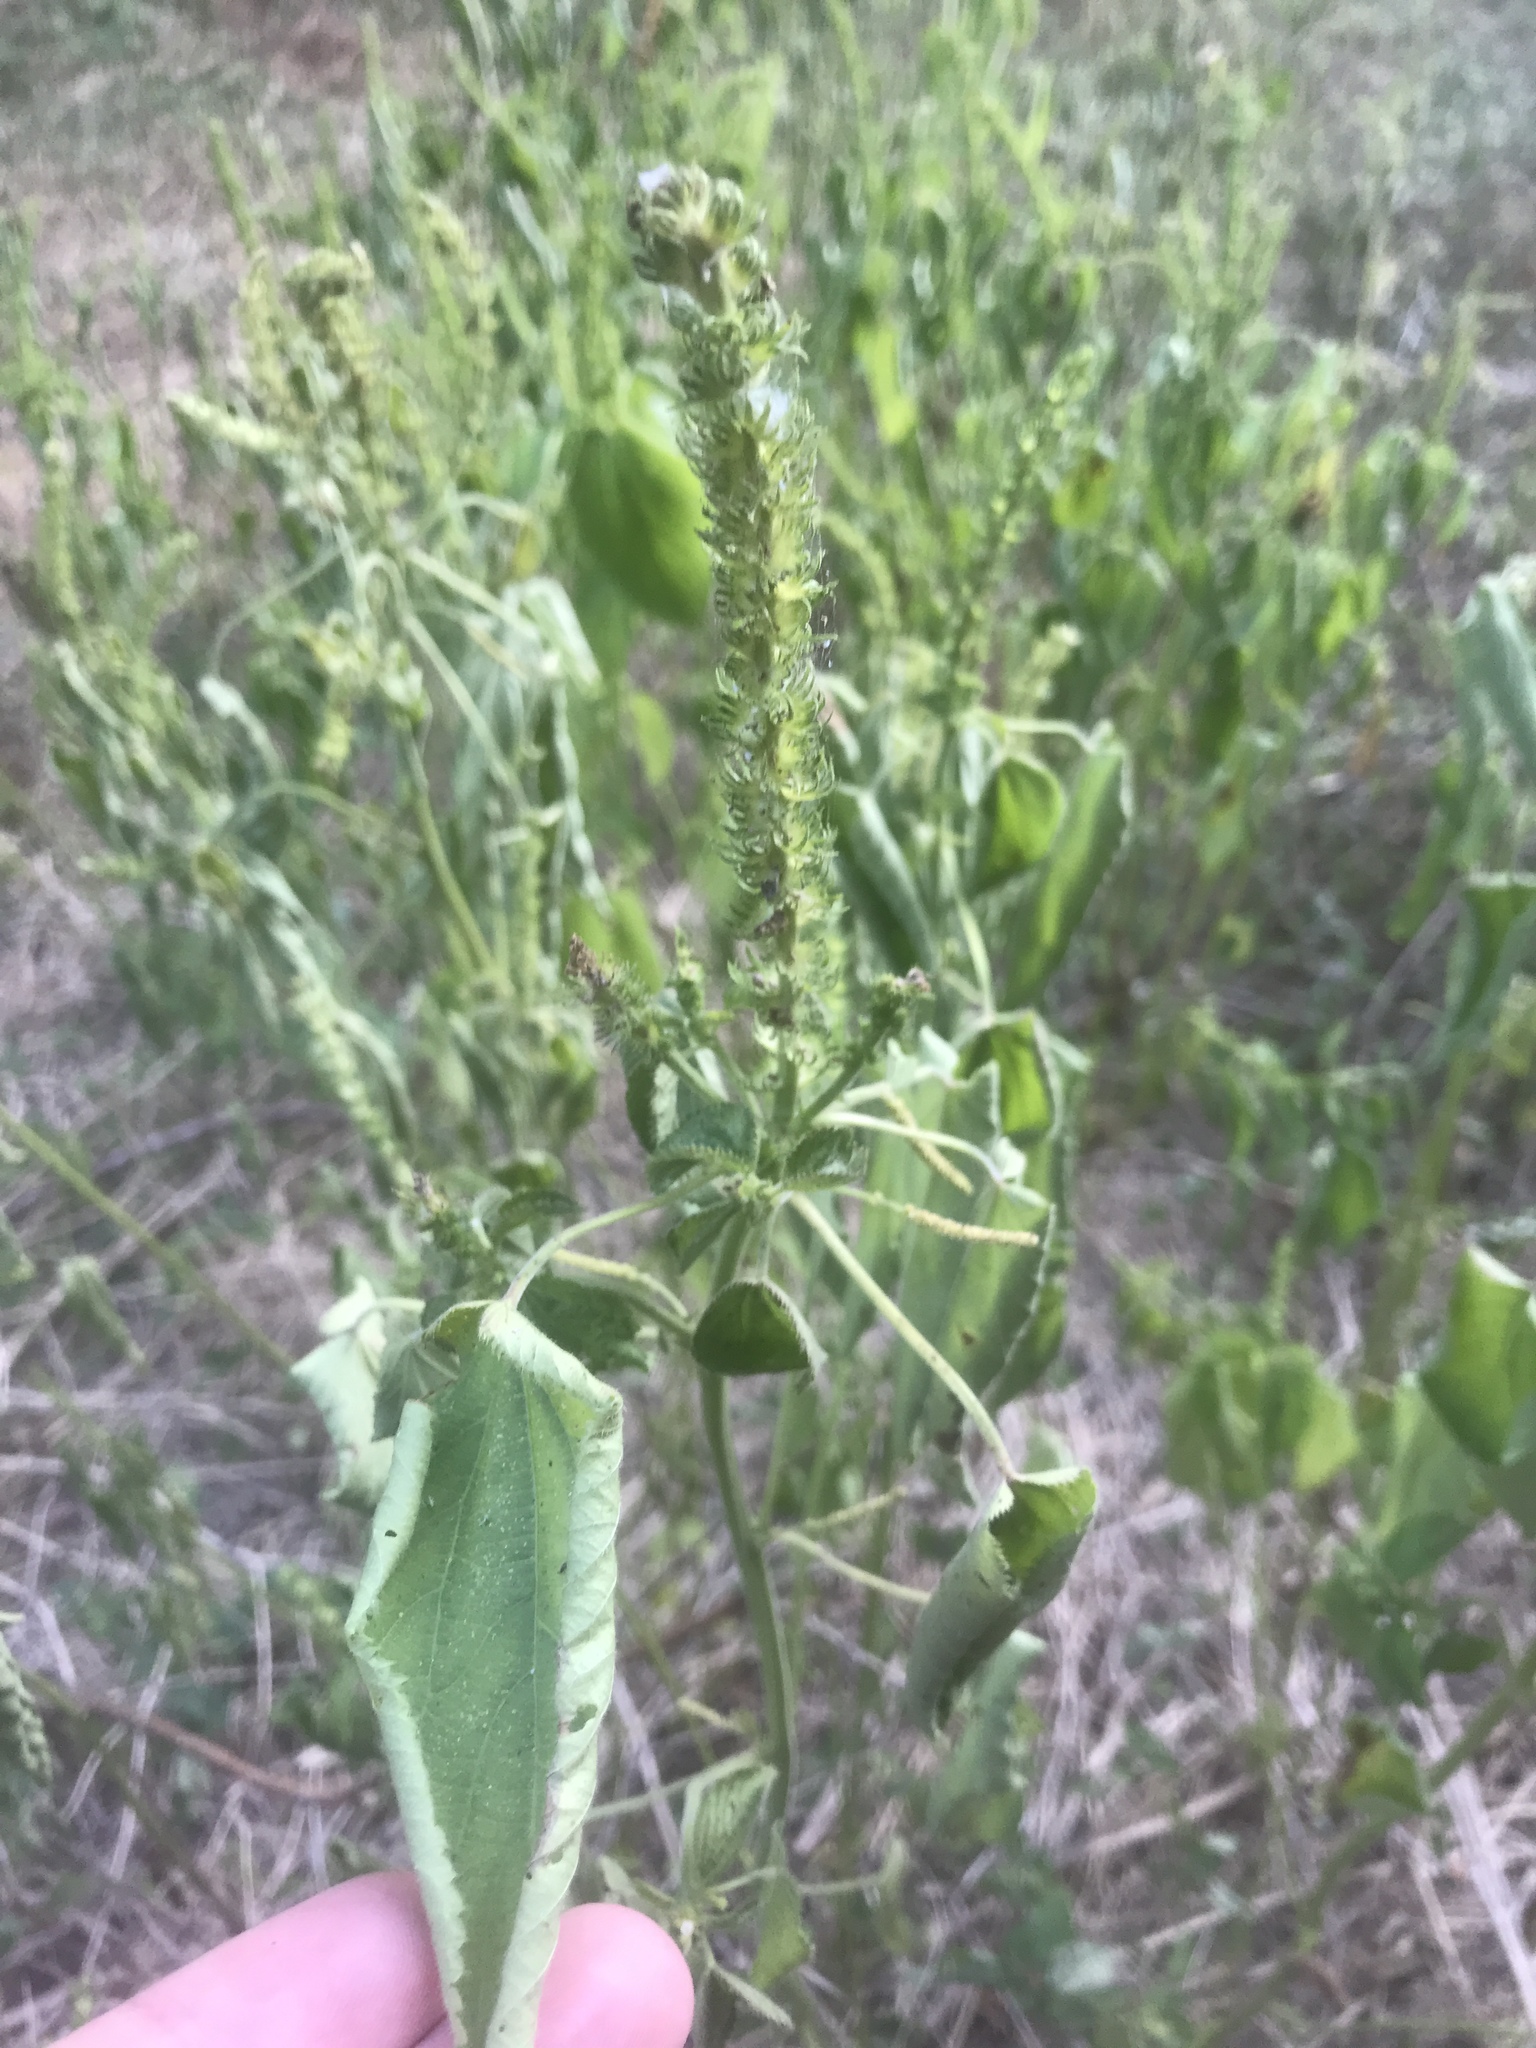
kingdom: Plantae
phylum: Tracheophyta
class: Magnoliopsida
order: Malpighiales
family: Euphorbiaceae
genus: Acalypha
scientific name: Acalypha ostryifolia
